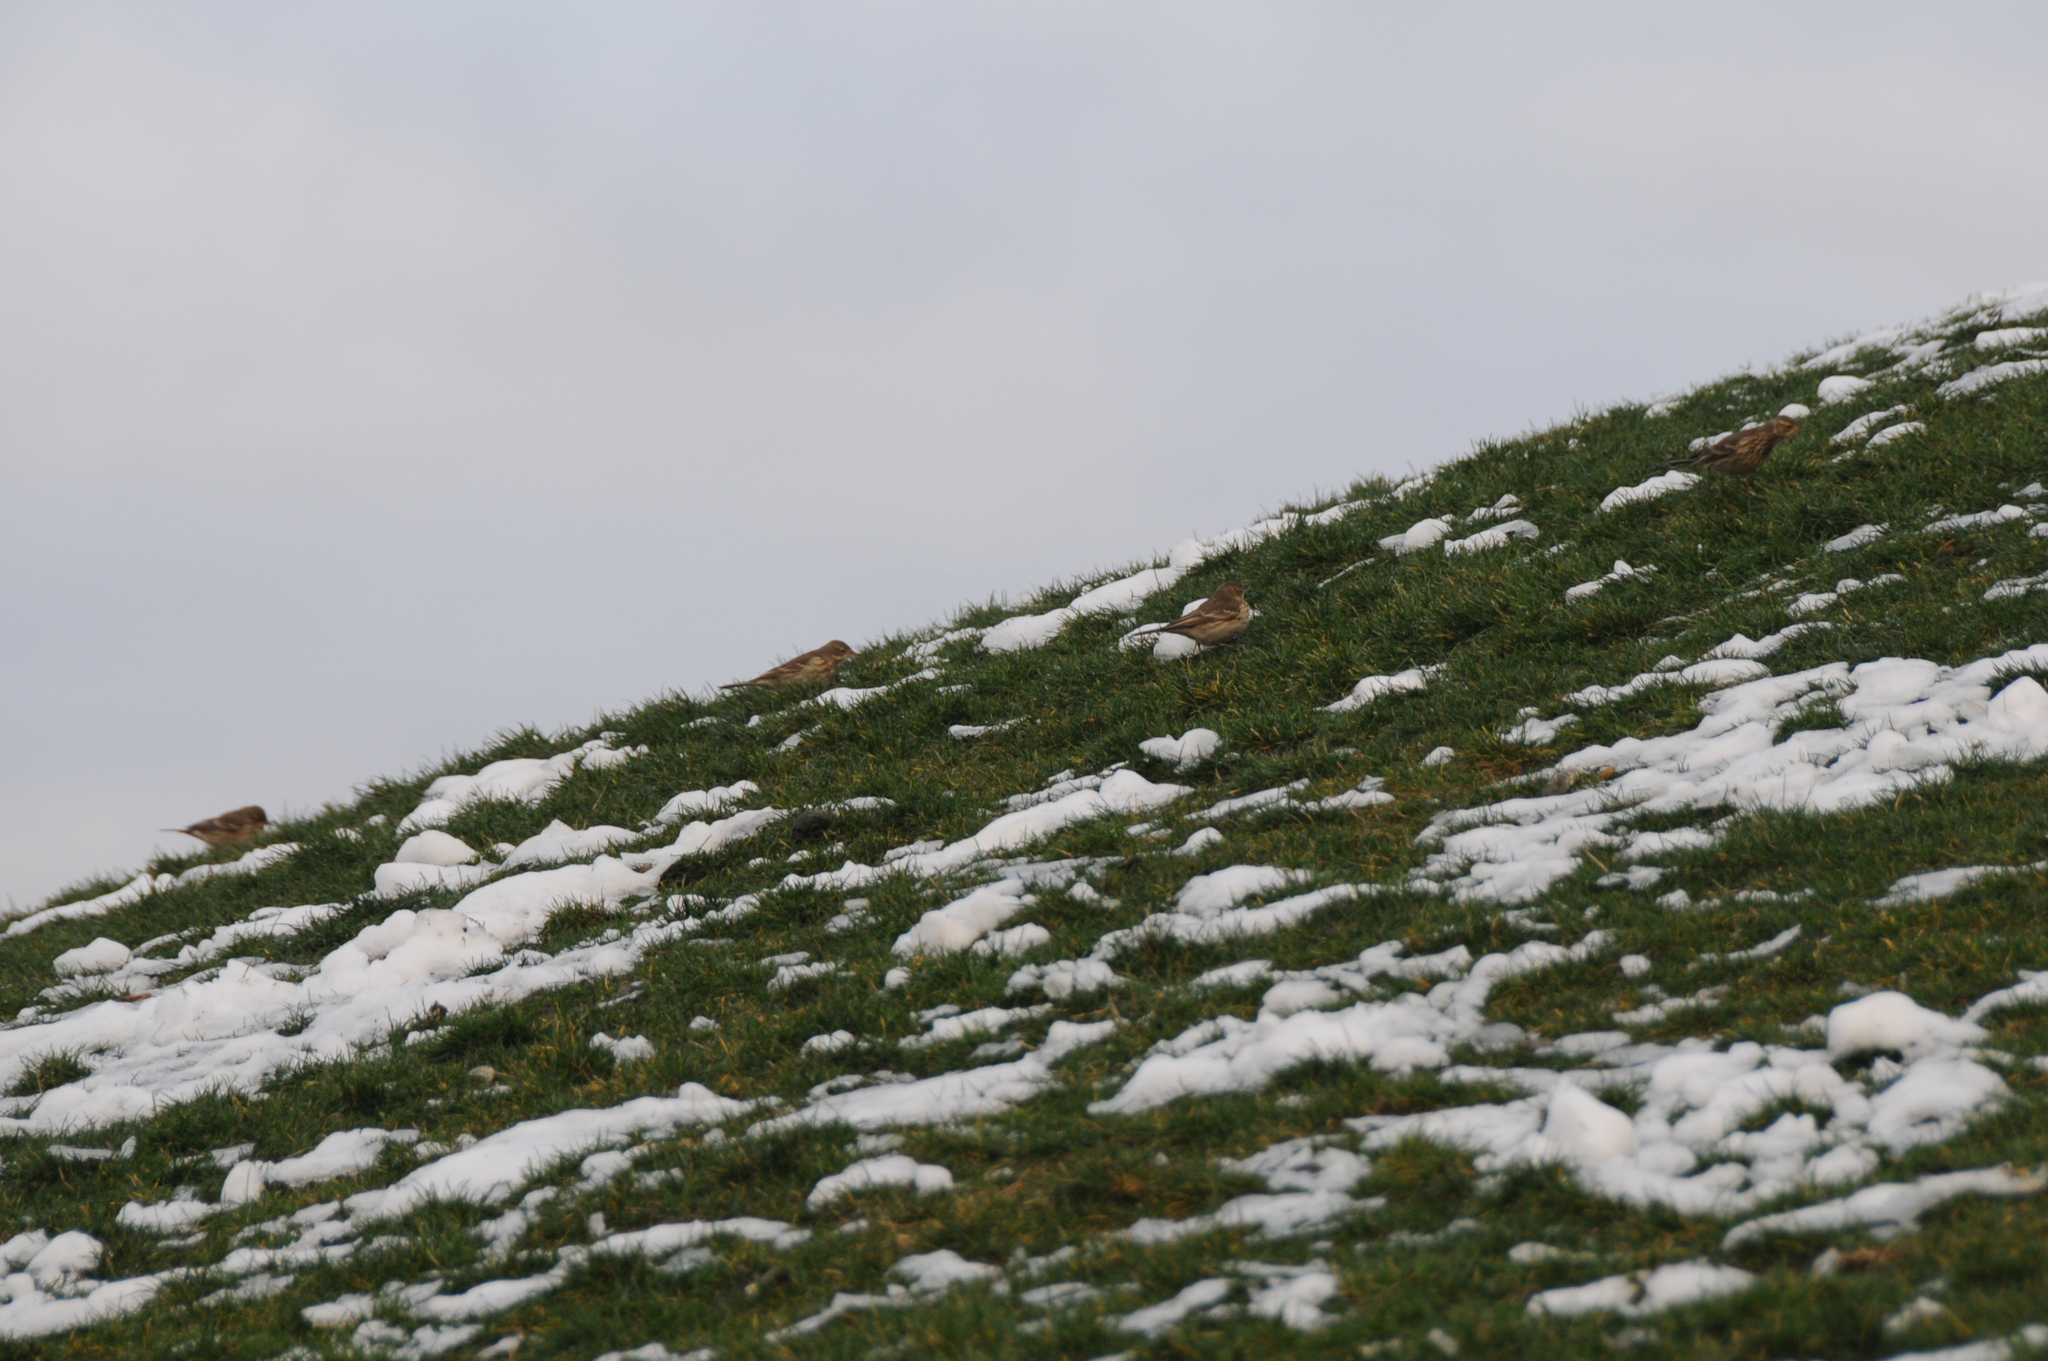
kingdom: Animalia
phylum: Chordata
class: Aves
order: Passeriformes
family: Motacillidae
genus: Anthus
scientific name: Anthus rubescens
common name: Buff-bellied pipit
